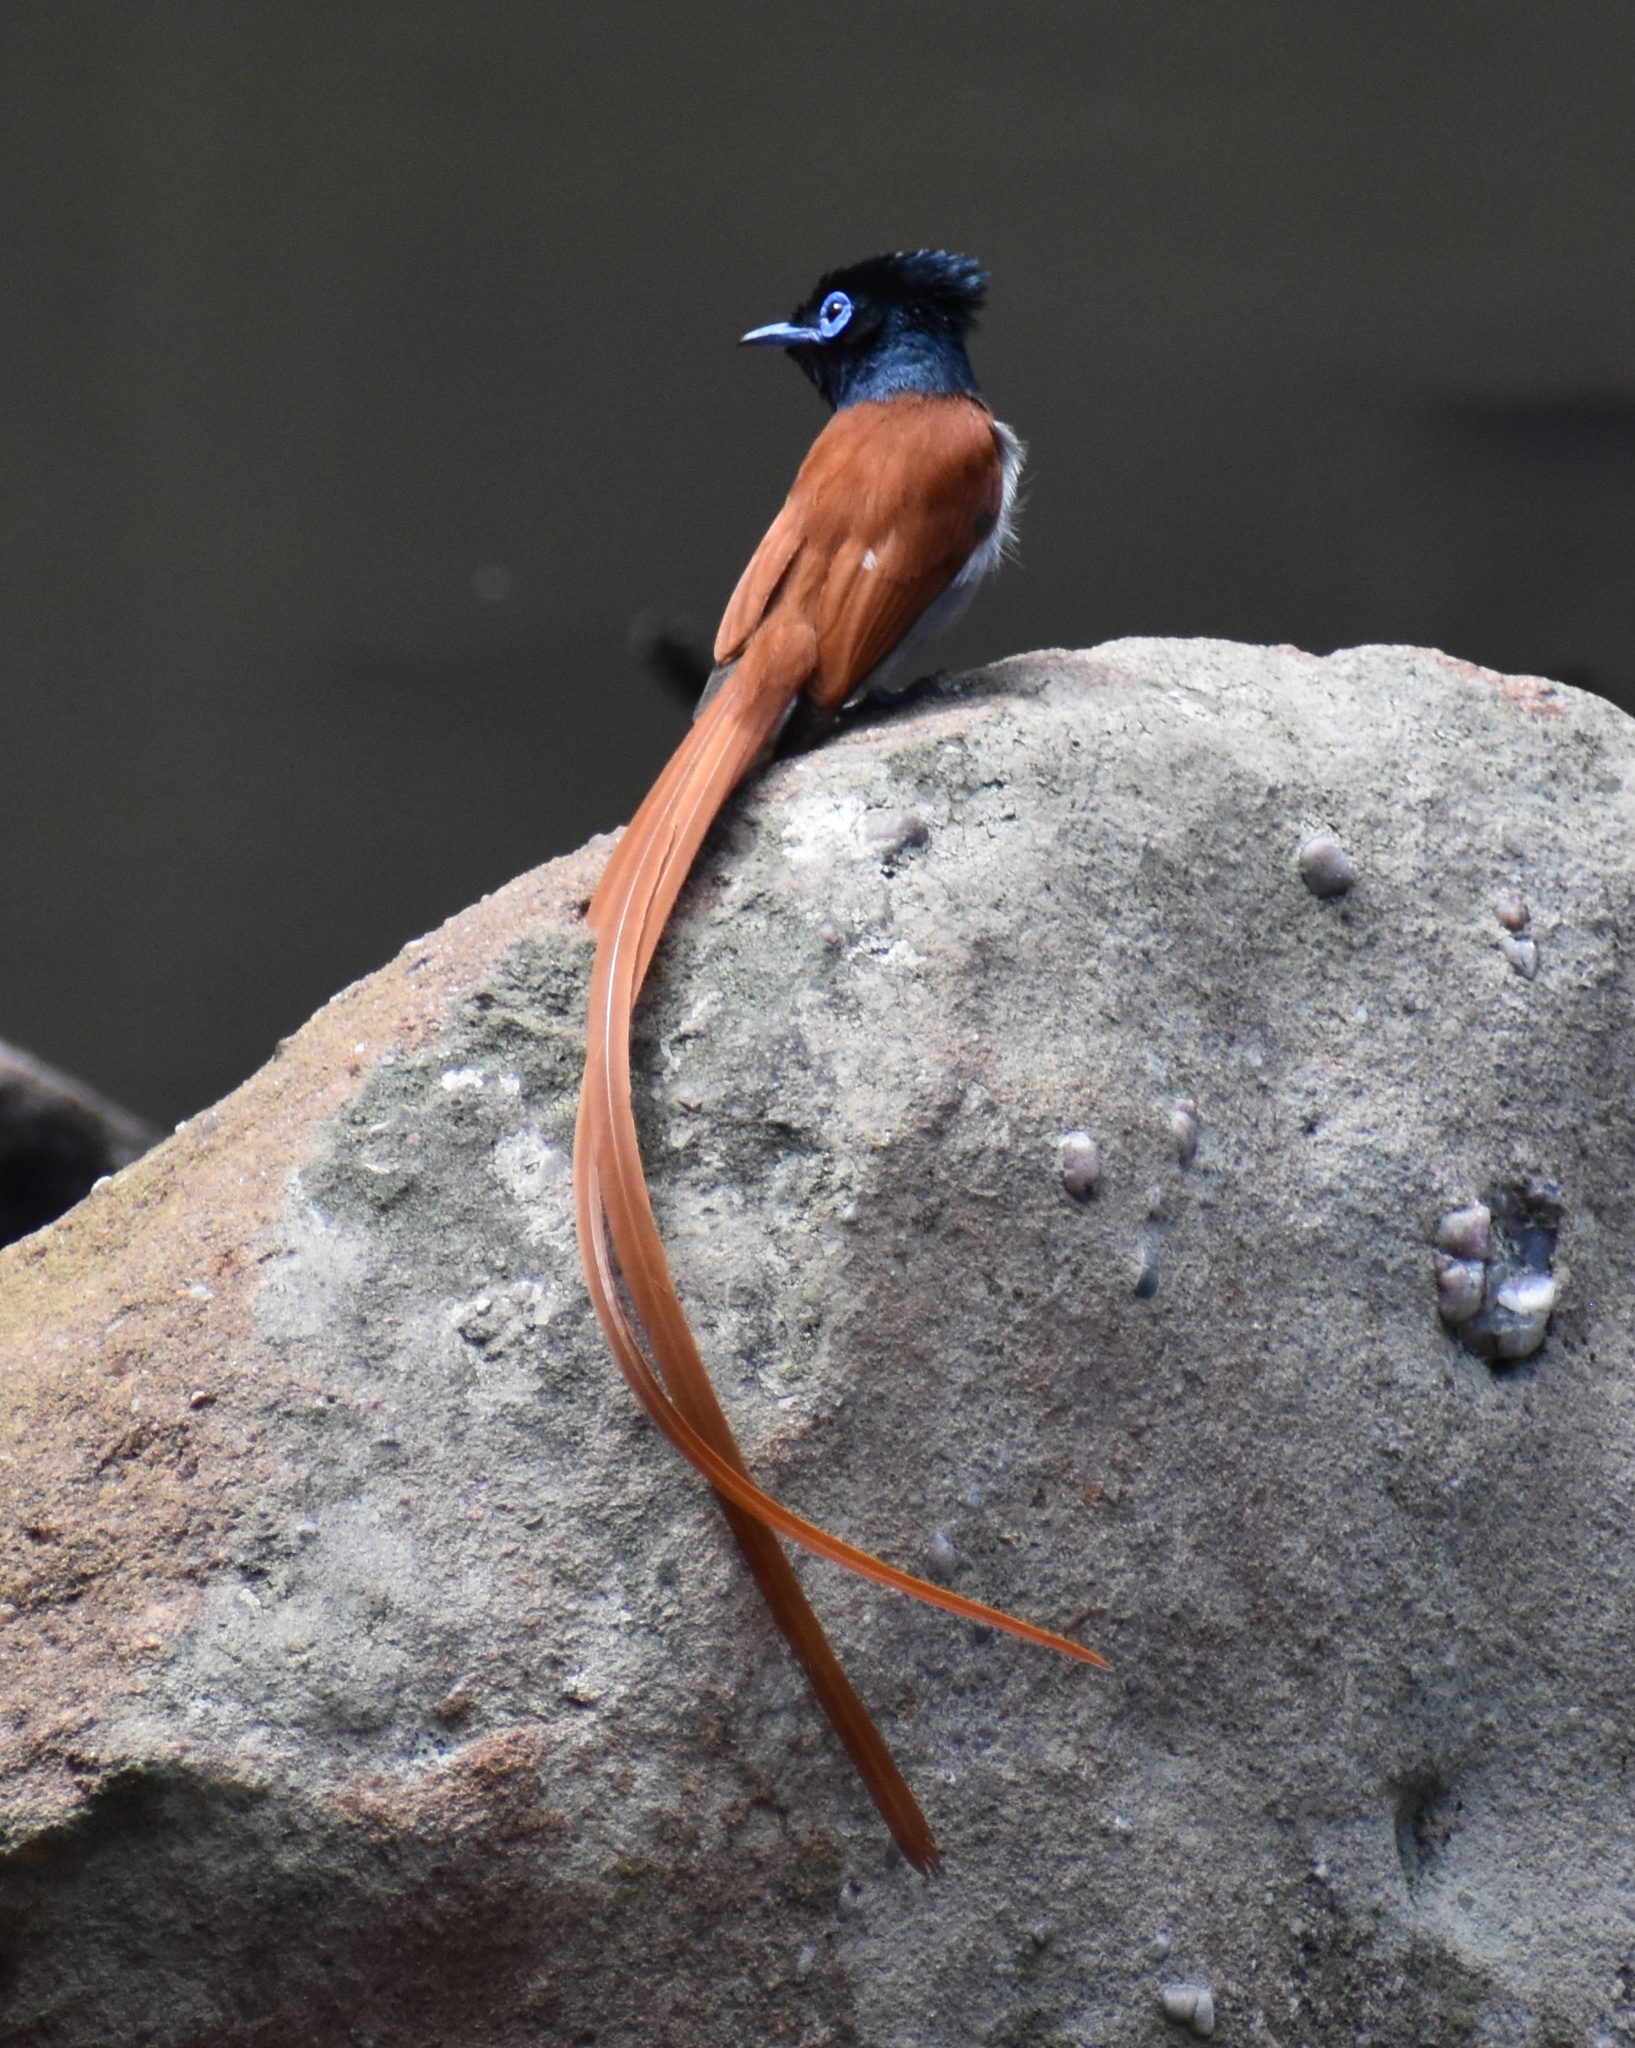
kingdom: Animalia
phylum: Chordata
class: Aves
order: Passeriformes
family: Monarchidae
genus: Terpsiphone
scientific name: Terpsiphone viridis
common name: African paradise flycatcher
